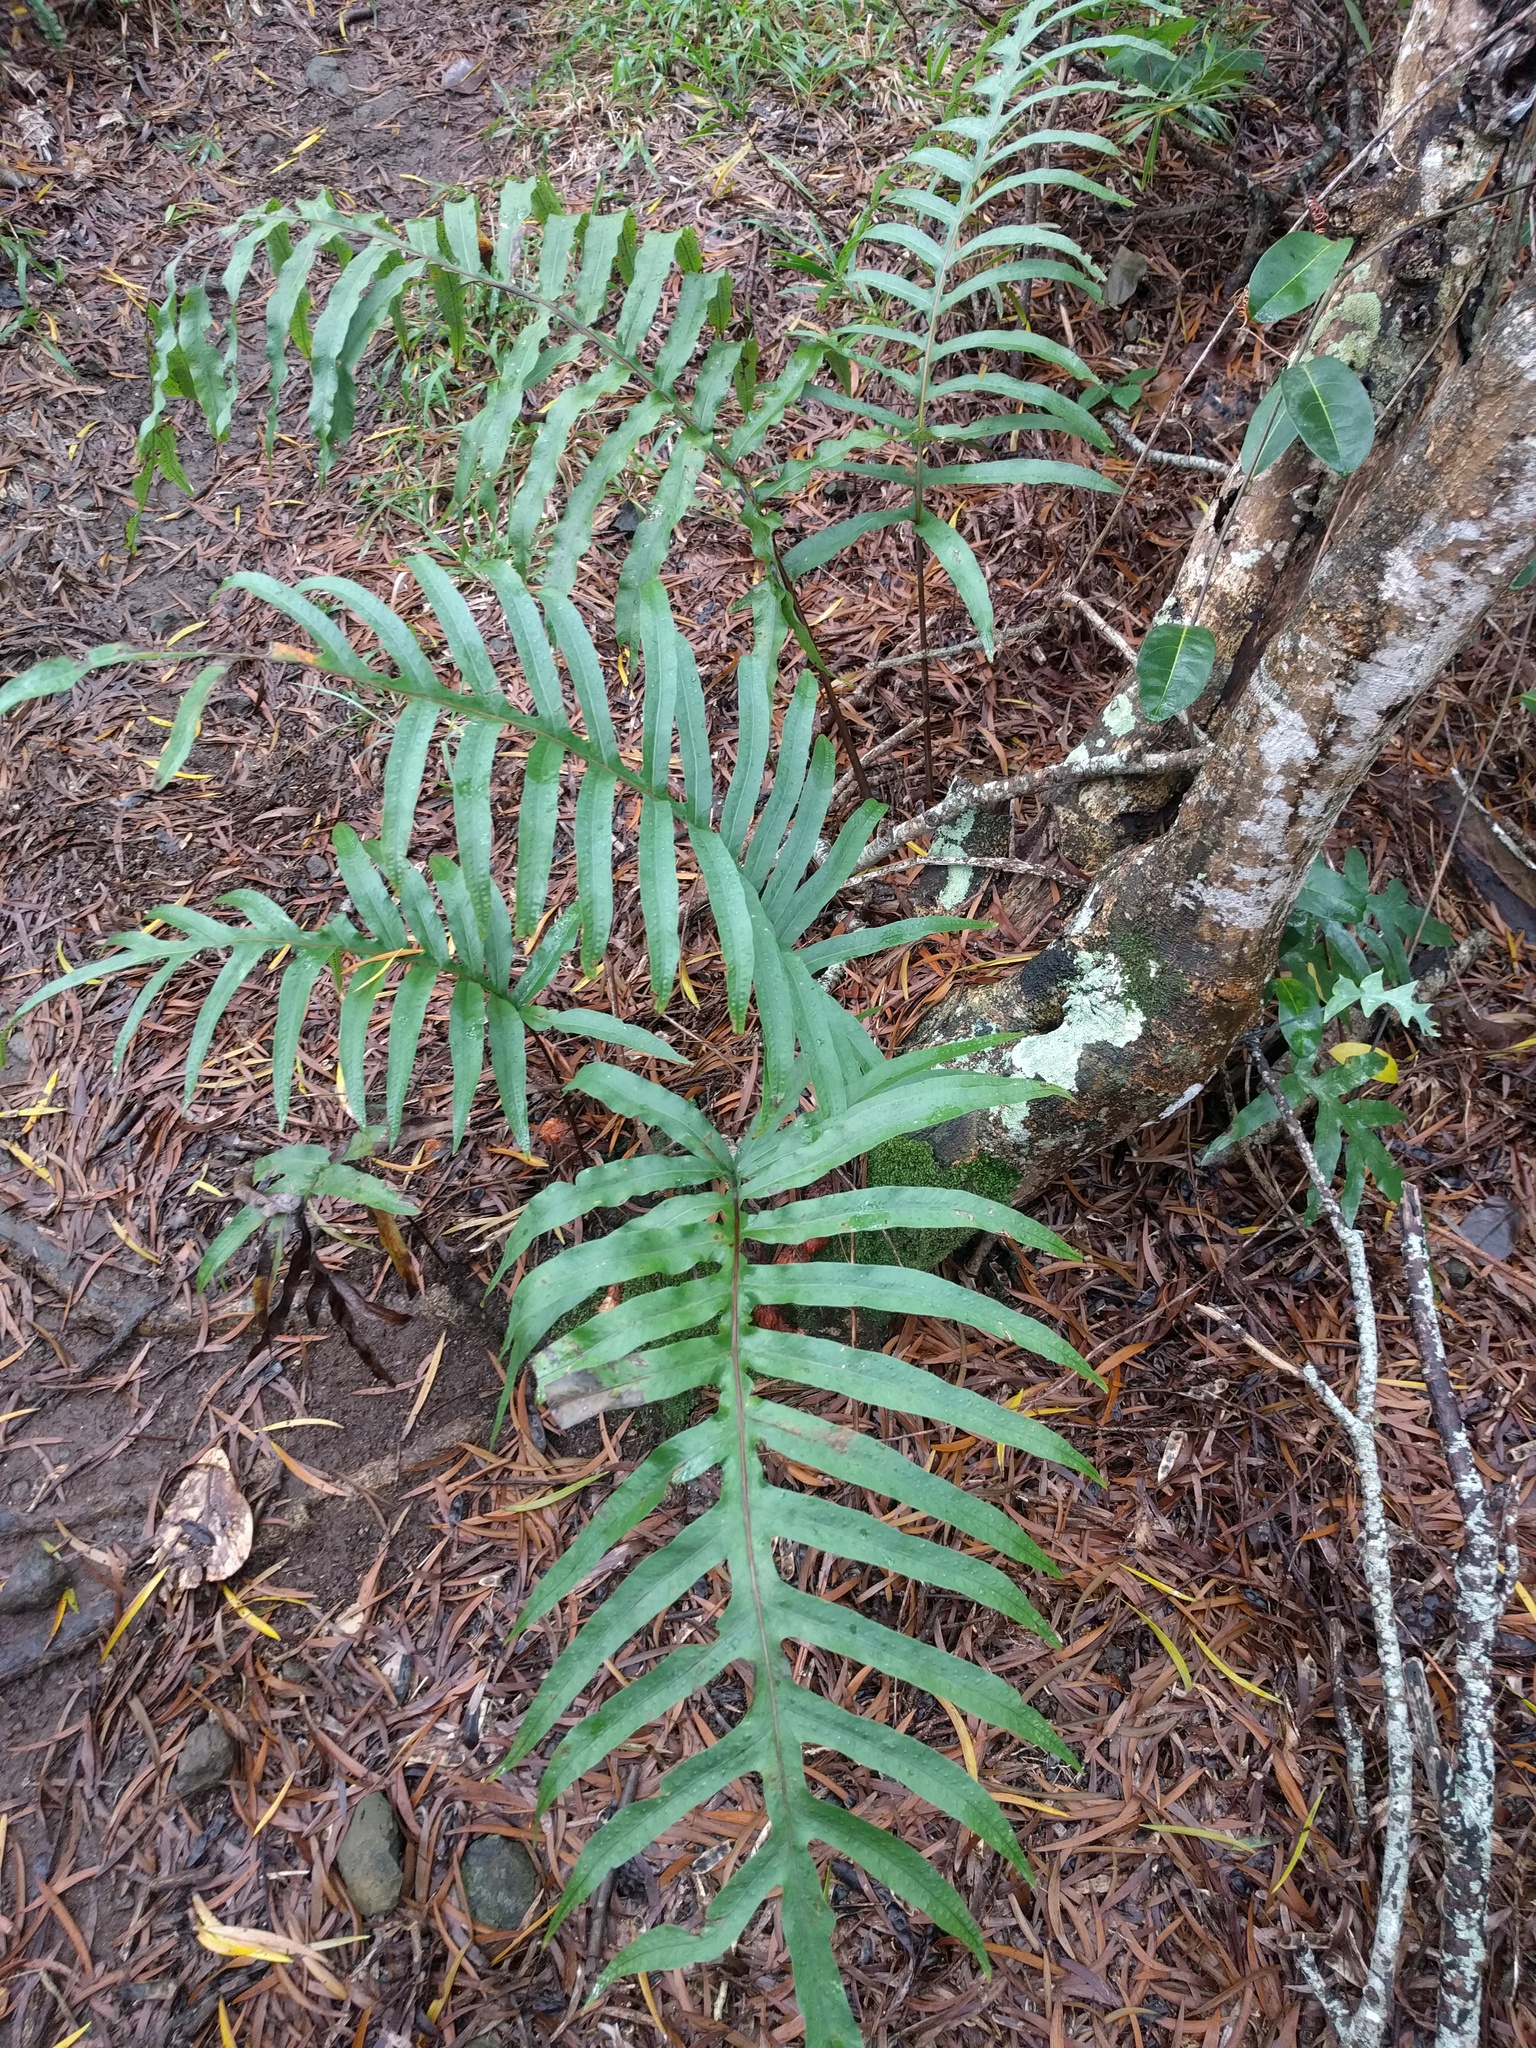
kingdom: Plantae
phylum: Tracheophyta
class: Polypodiopsida
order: Polypodiales
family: Polypodiaceae
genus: Phlebodium
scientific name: Phlebodium aureum
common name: Gold-foot fern
